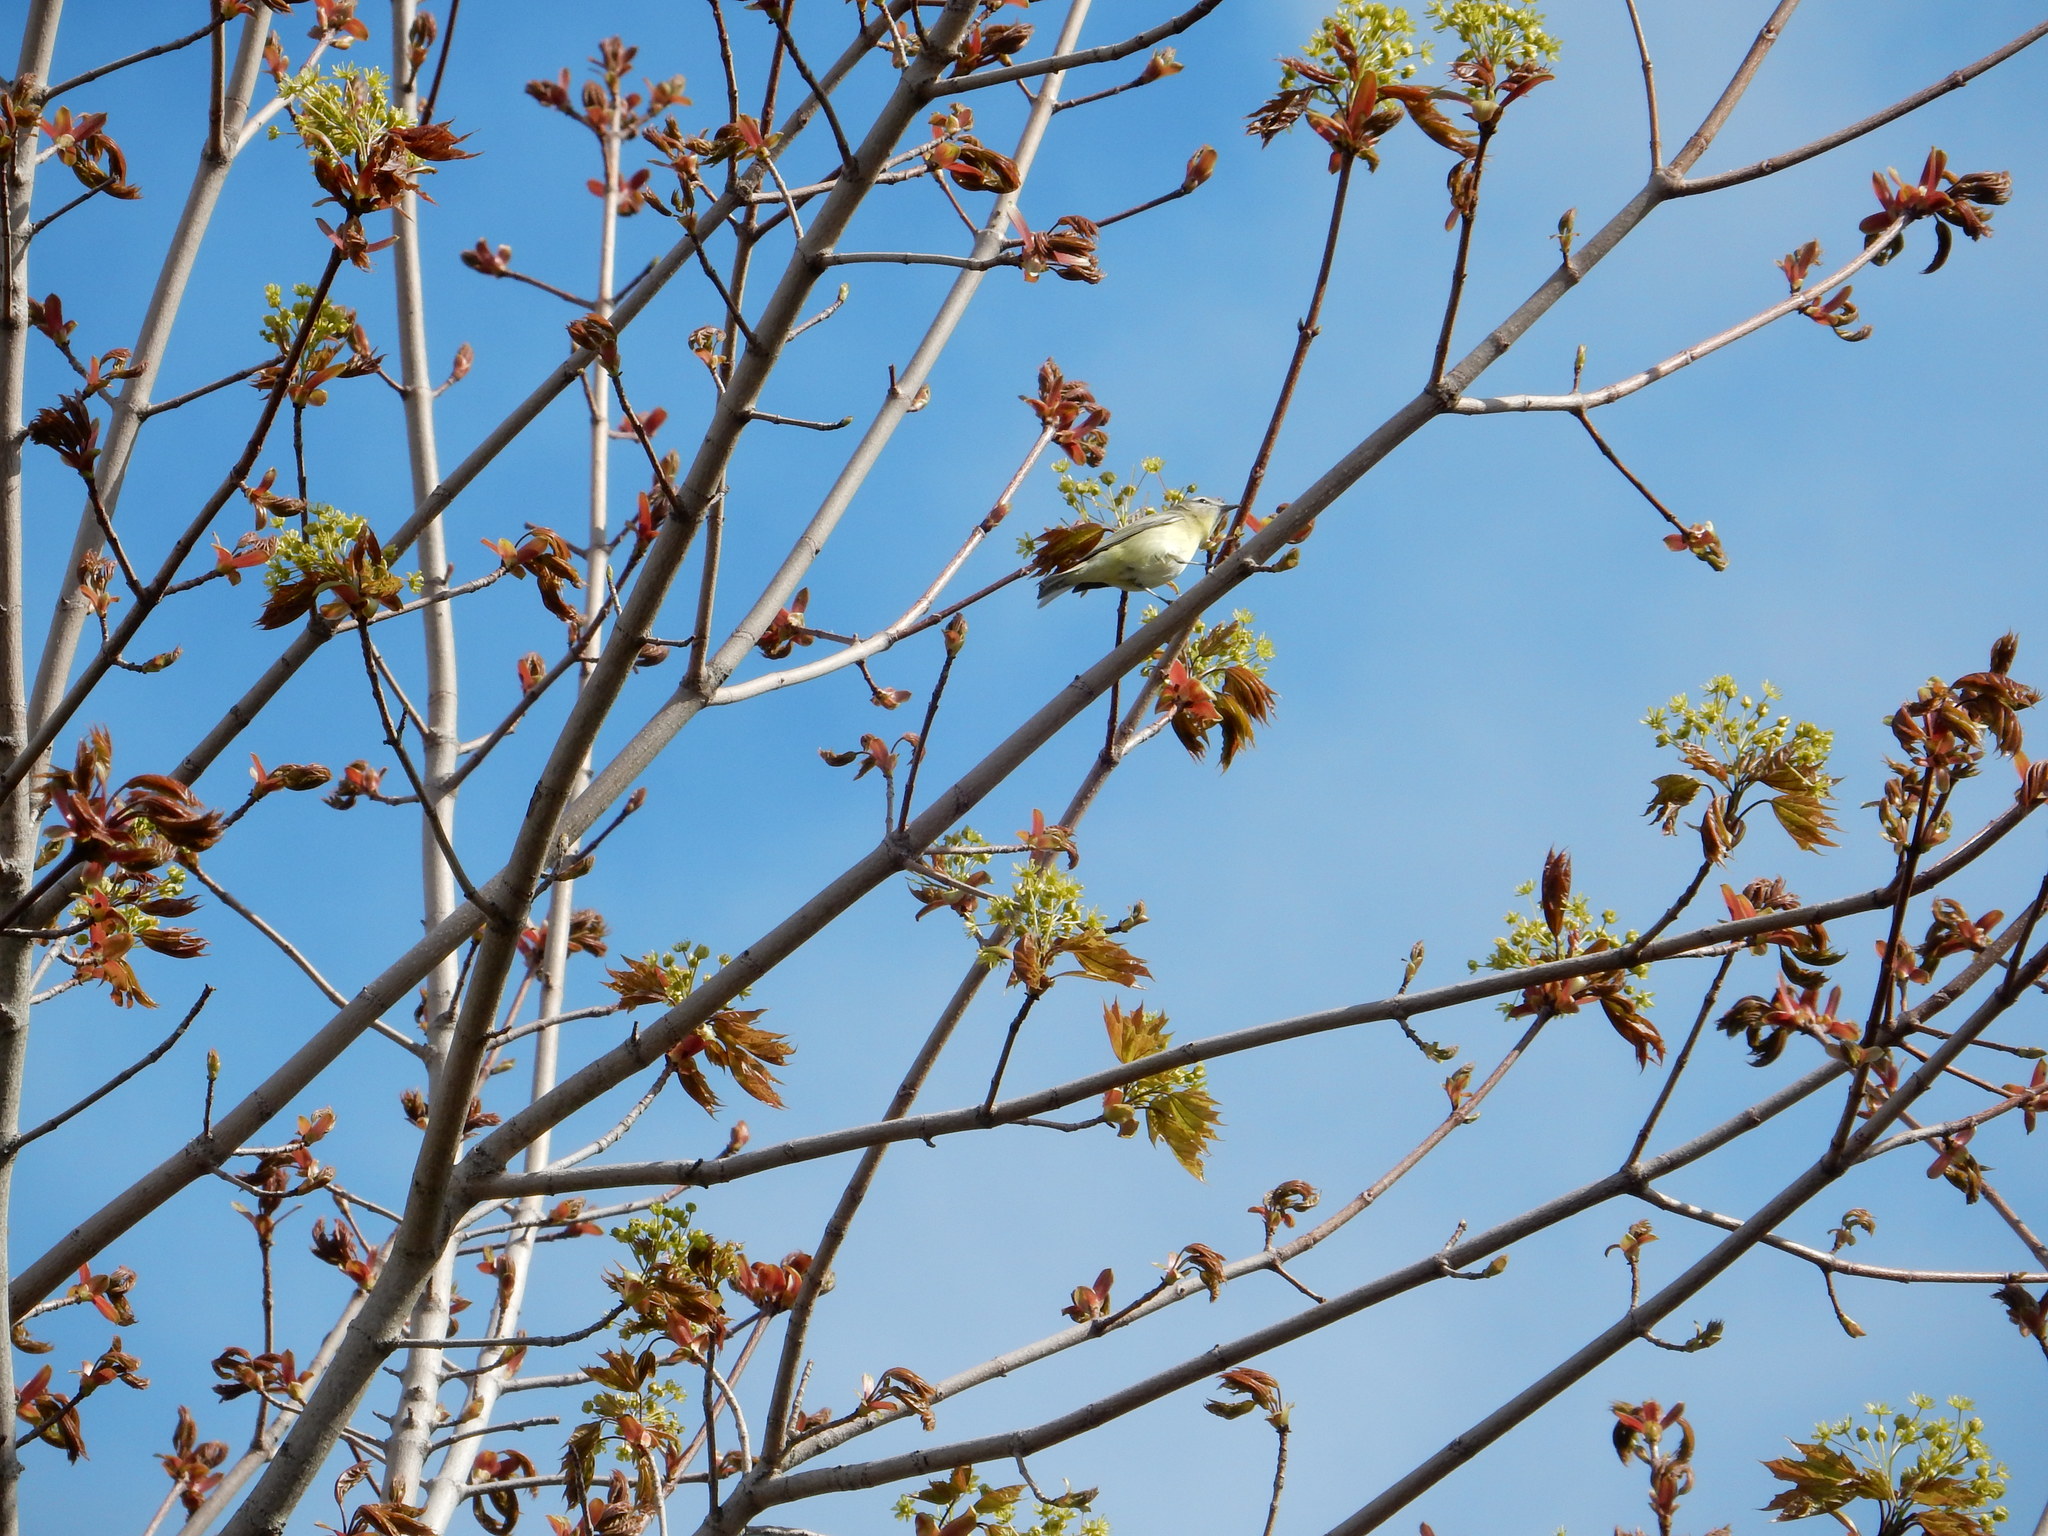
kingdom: Animalia
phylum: Chordata
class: Aves
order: Passeriformes
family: Vireonidae
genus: Vireo
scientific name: Vireo philadelphicus
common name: Philadelphia vireo
